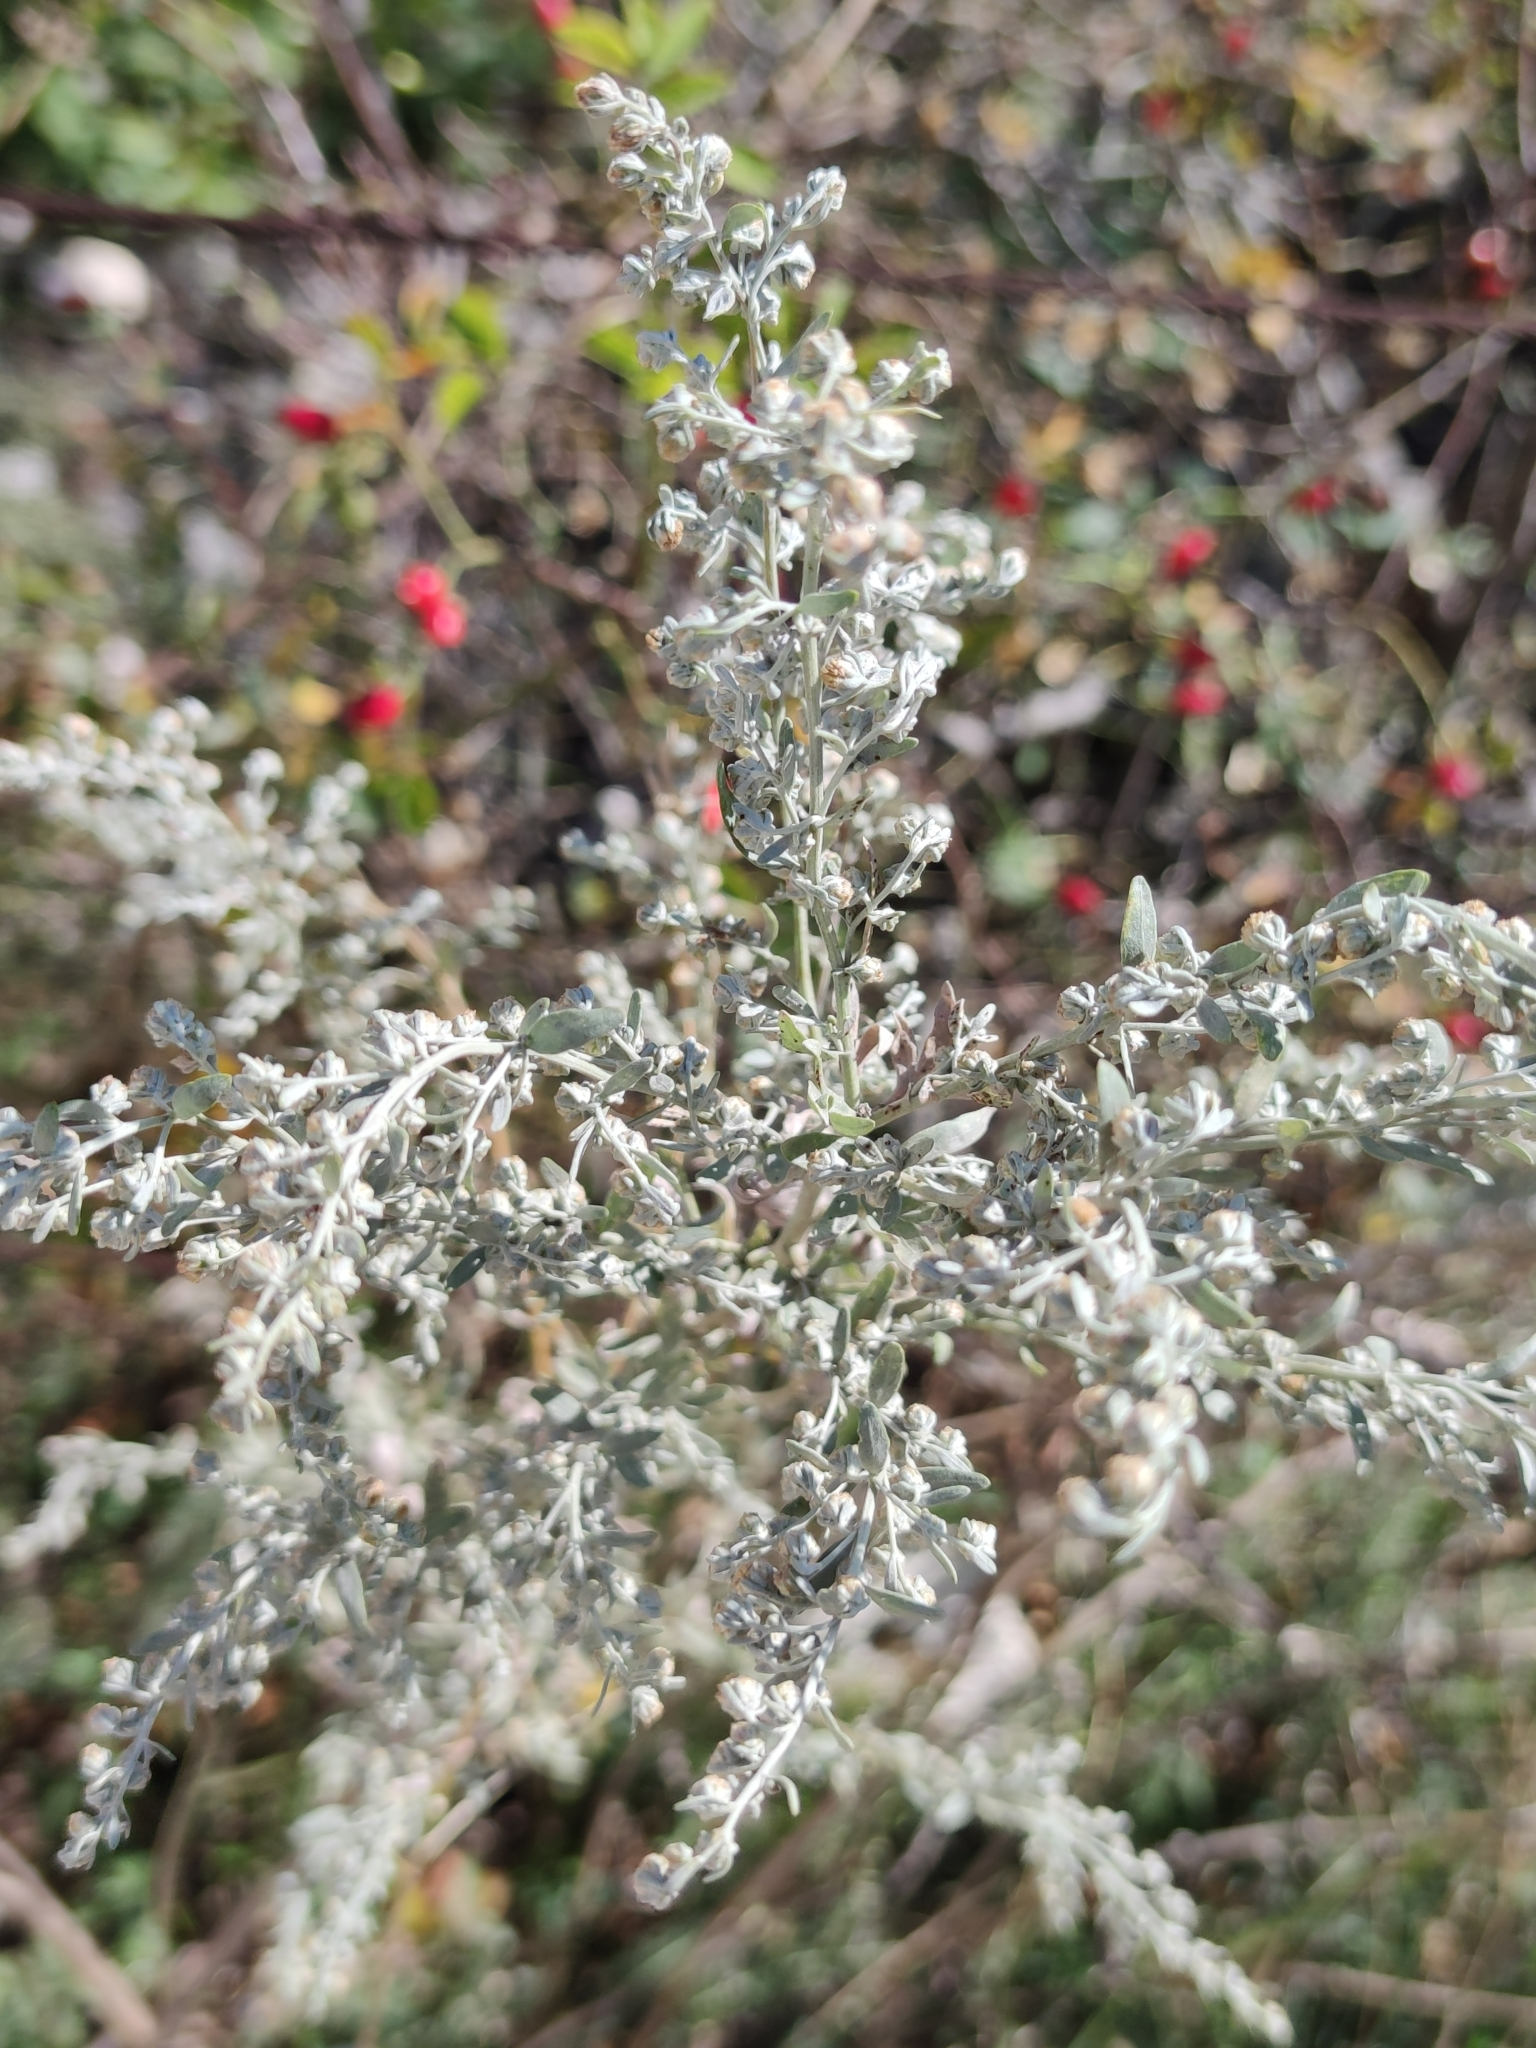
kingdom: Plantae
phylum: Tracheophyta
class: Magnoliopsida
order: Asterales
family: Asteraceae
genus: Artemisia
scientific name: Artemisia absinthium
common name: Wormwood
